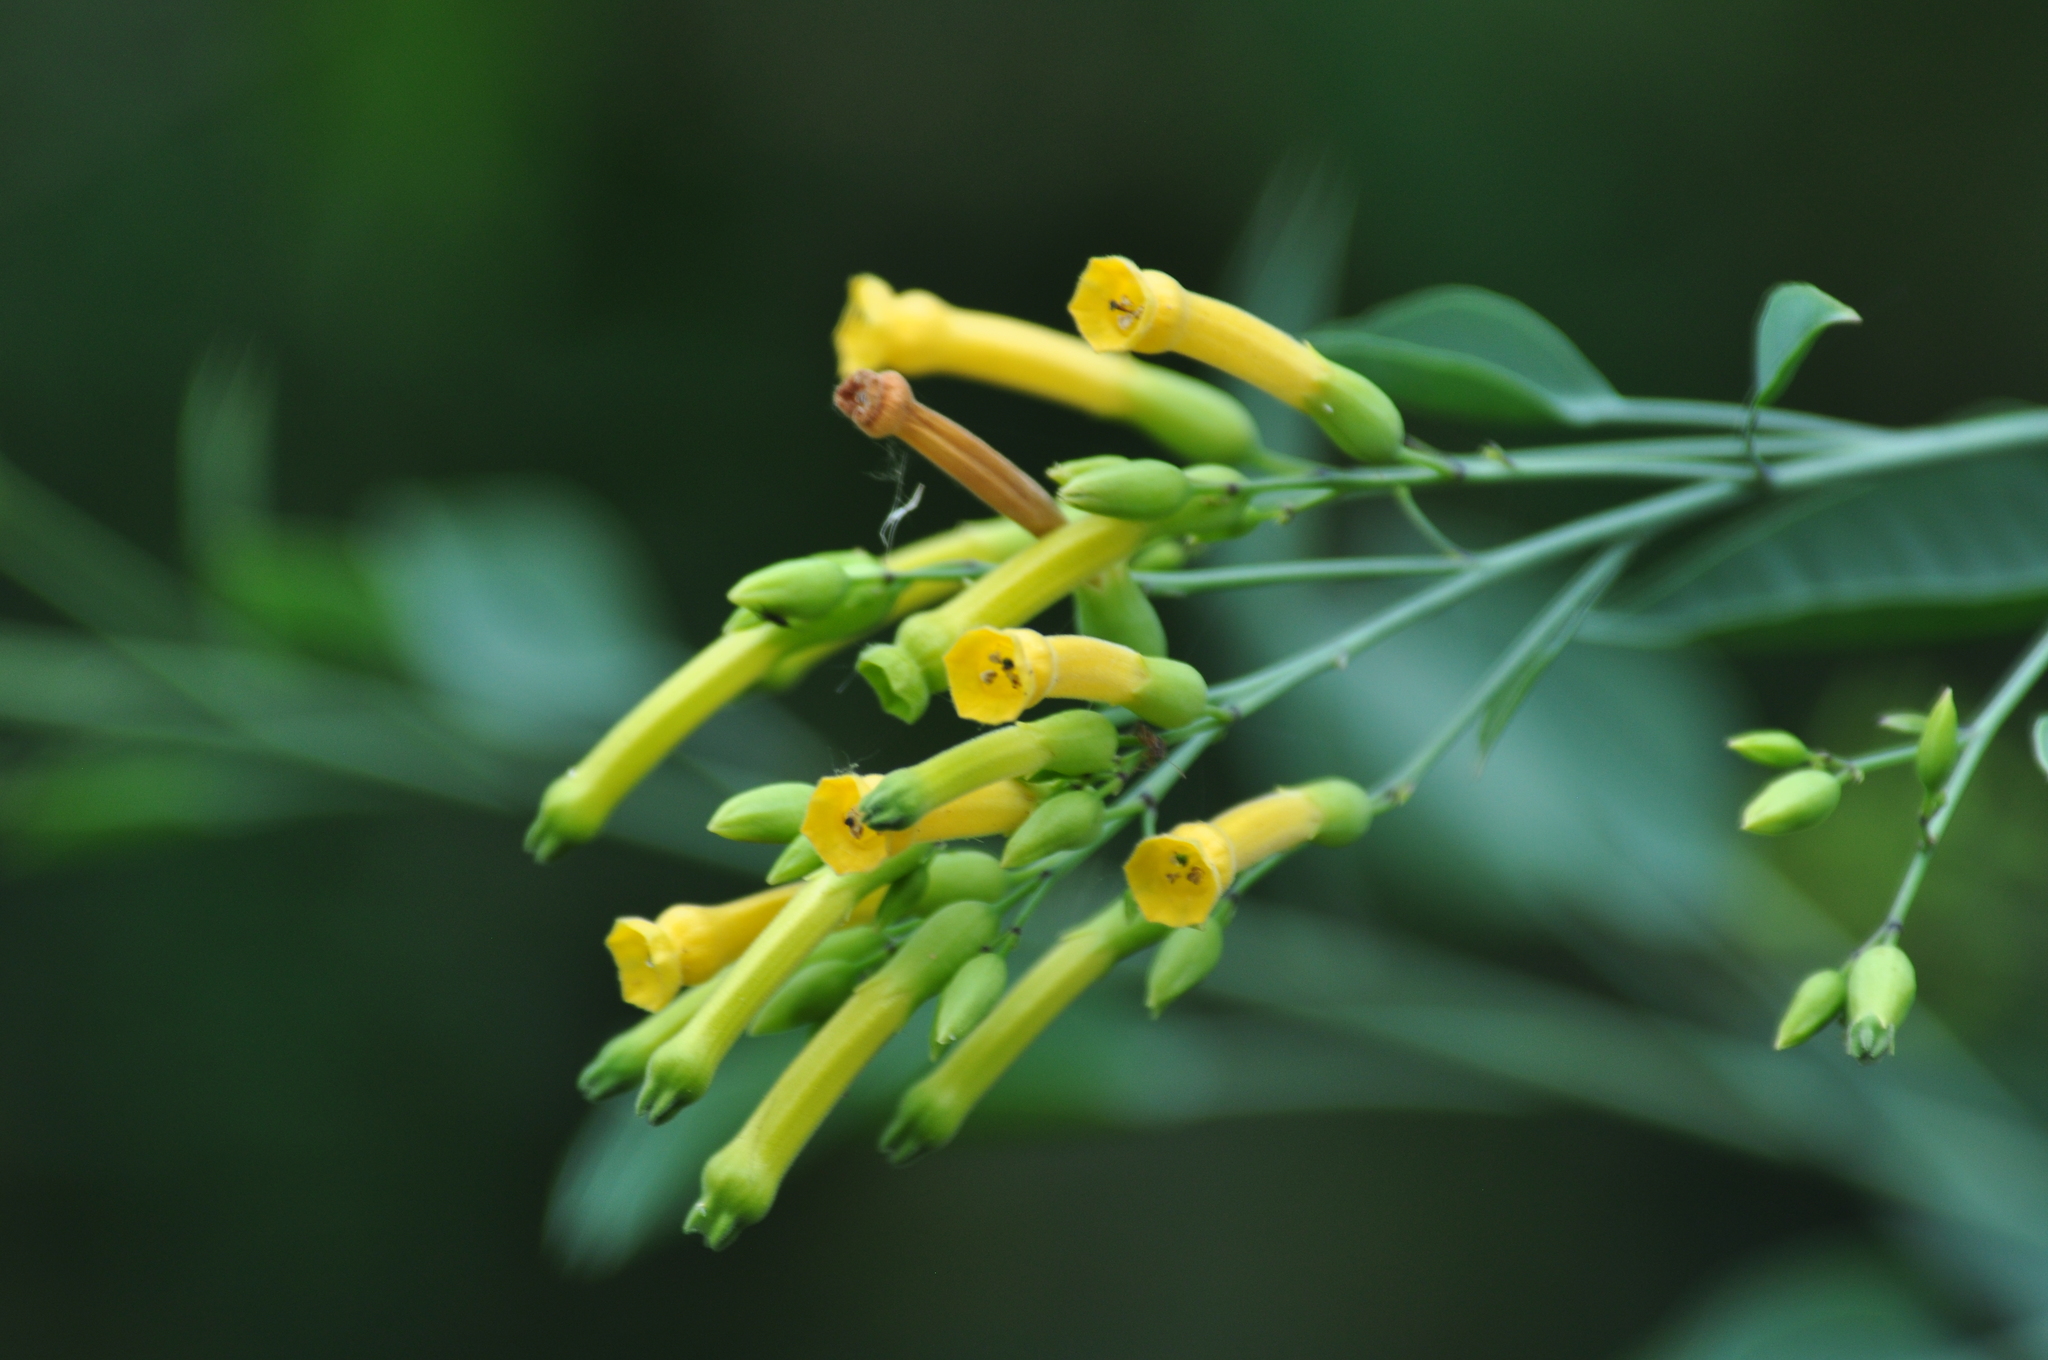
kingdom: Plantae
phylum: Tracheophyta
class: Magnoliopsida
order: Solanales
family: Solanaceae
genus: Nicotiana
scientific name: Nicotiana glauca
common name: Tree tobacco
